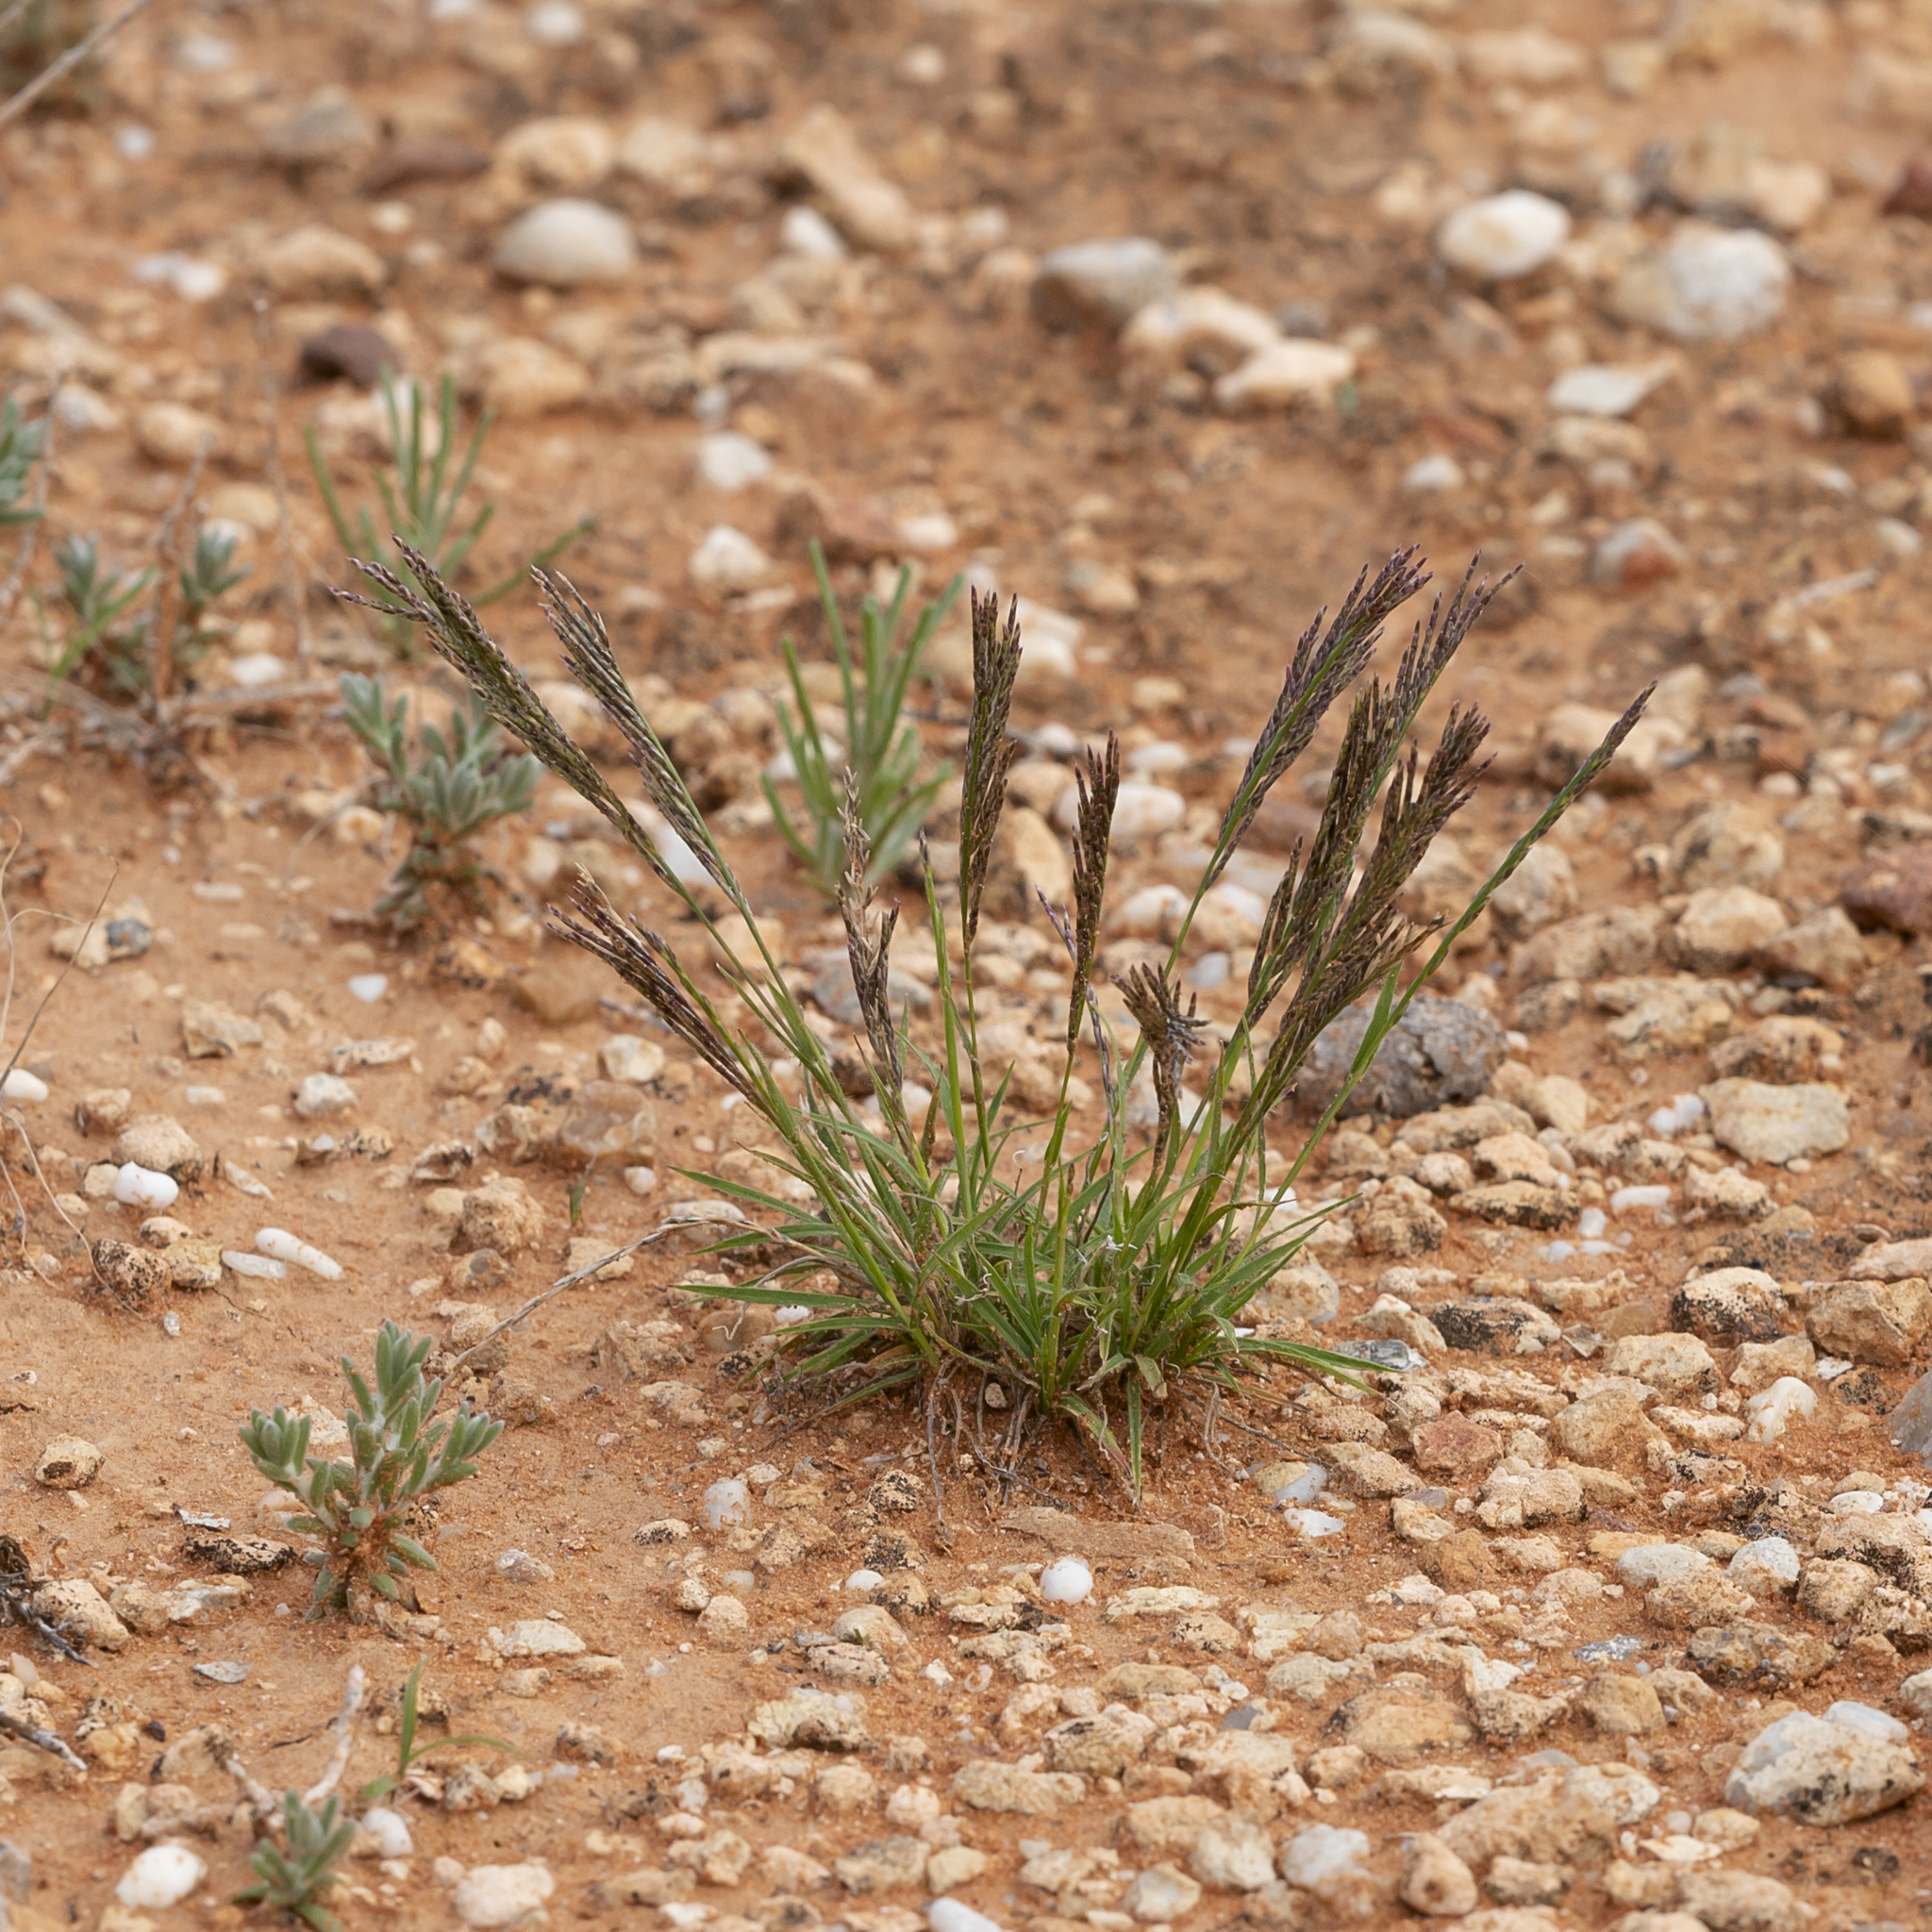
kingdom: Plantae
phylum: Tracheophyta
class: Liliopsida
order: Poales
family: Poaceae
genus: Tripogonella
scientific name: Tripogonella loliiformis
